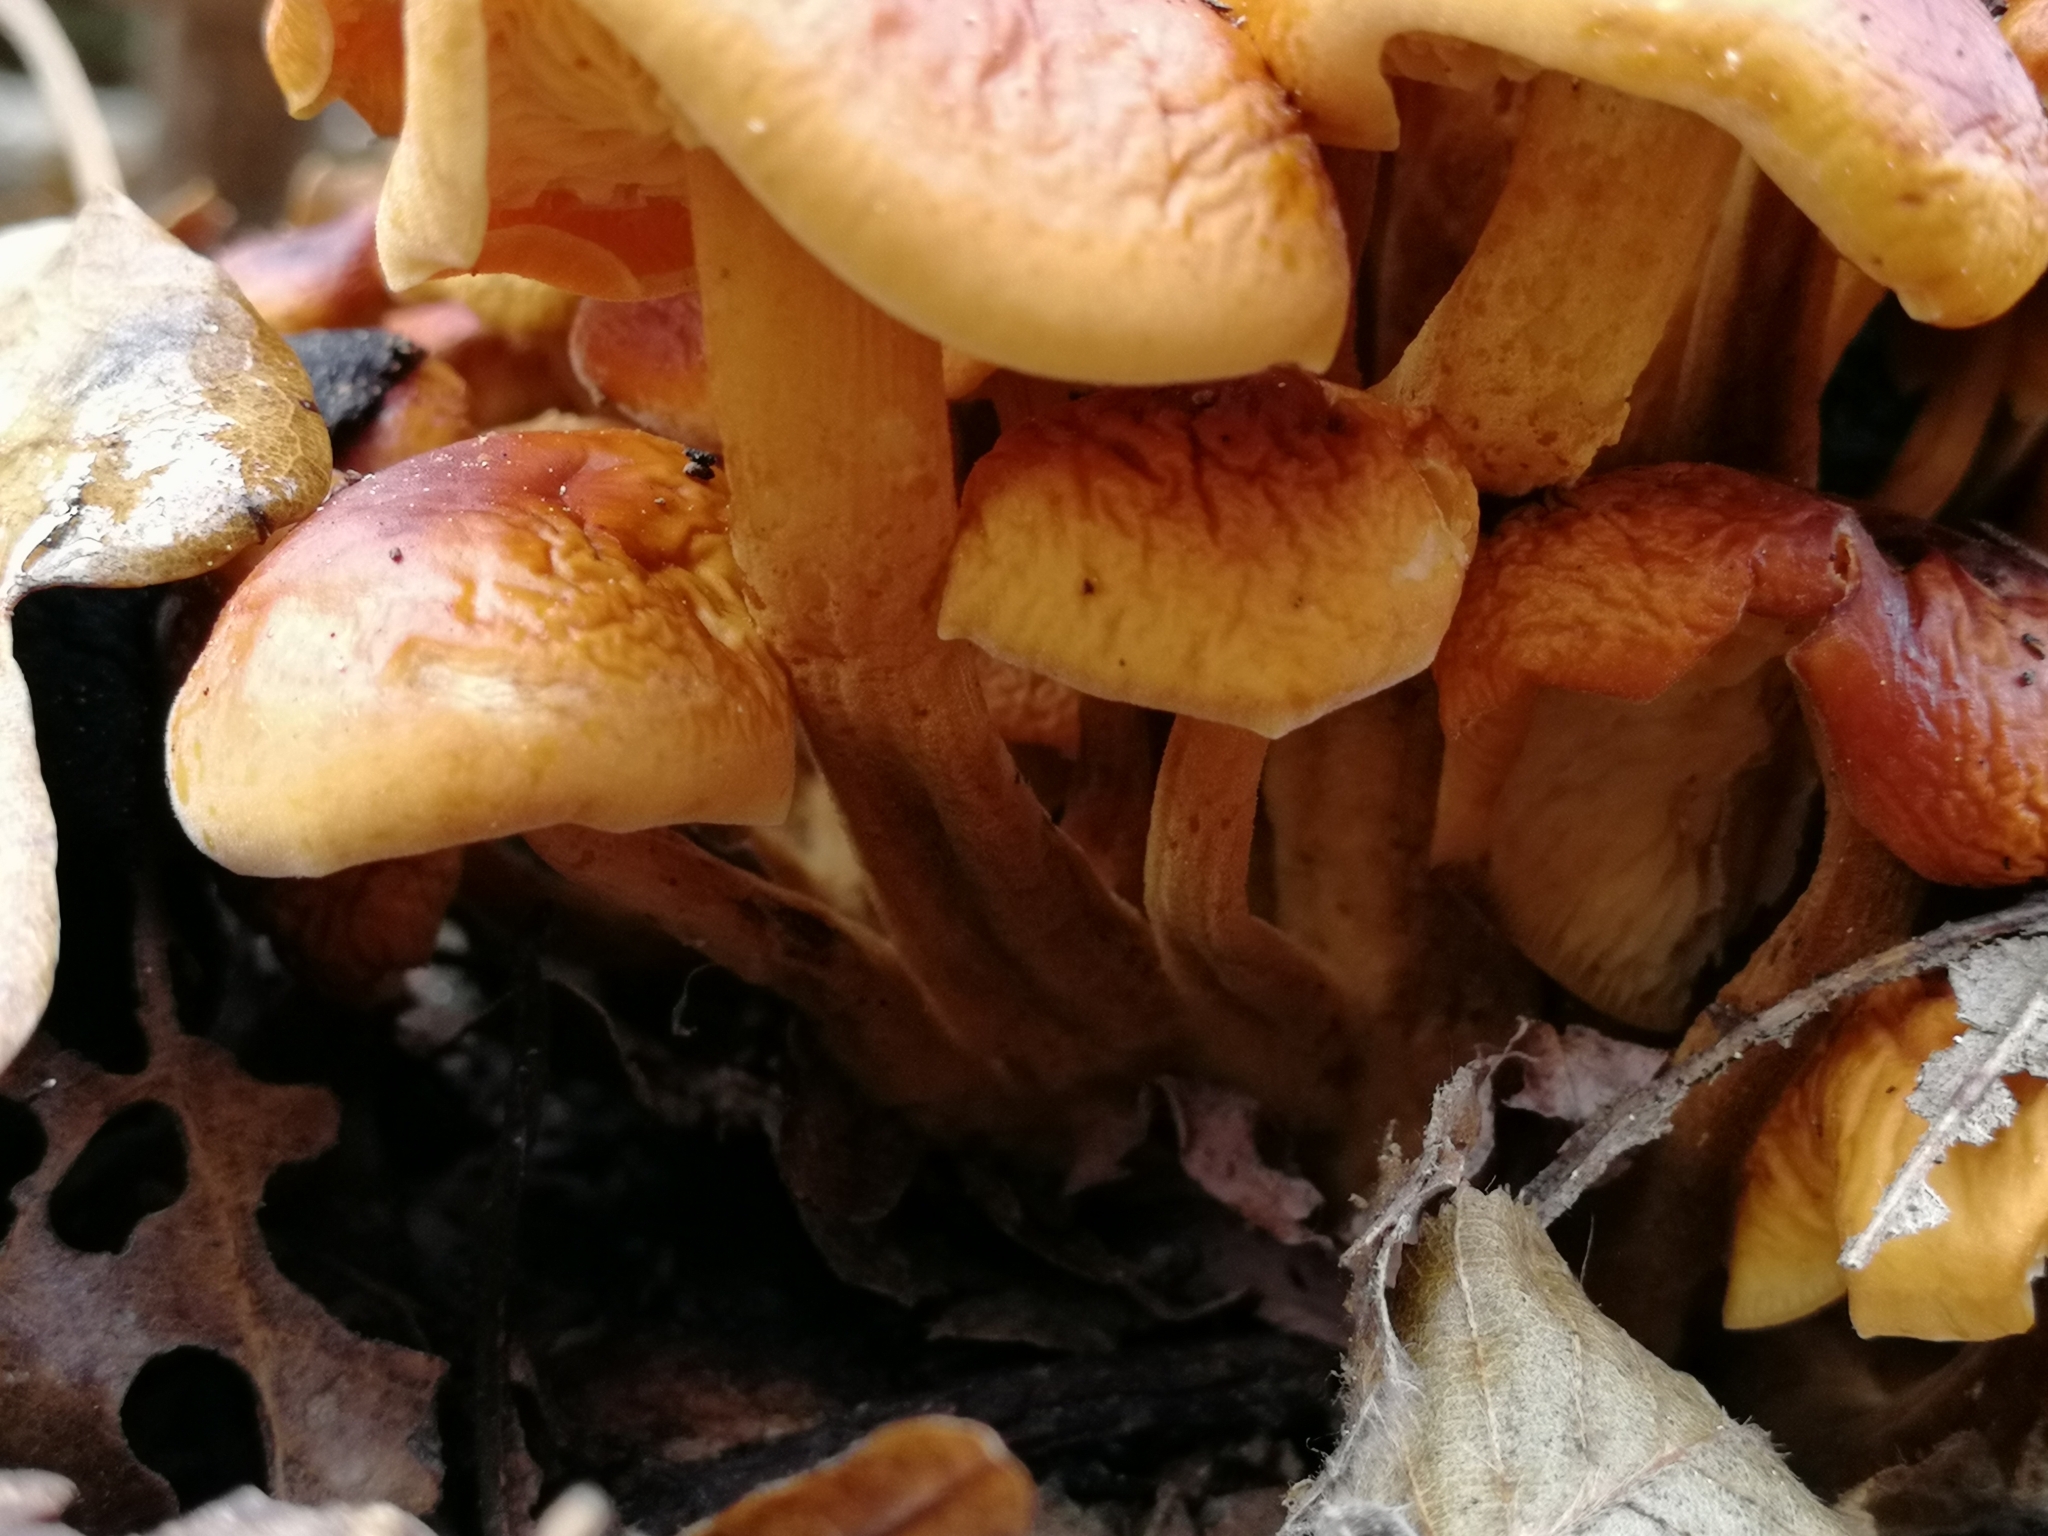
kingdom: Fungi
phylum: Basidiomycota
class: Agaricomycetes
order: Agaricales
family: Physalacriaceae
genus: Flammulina
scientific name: Flammulina
